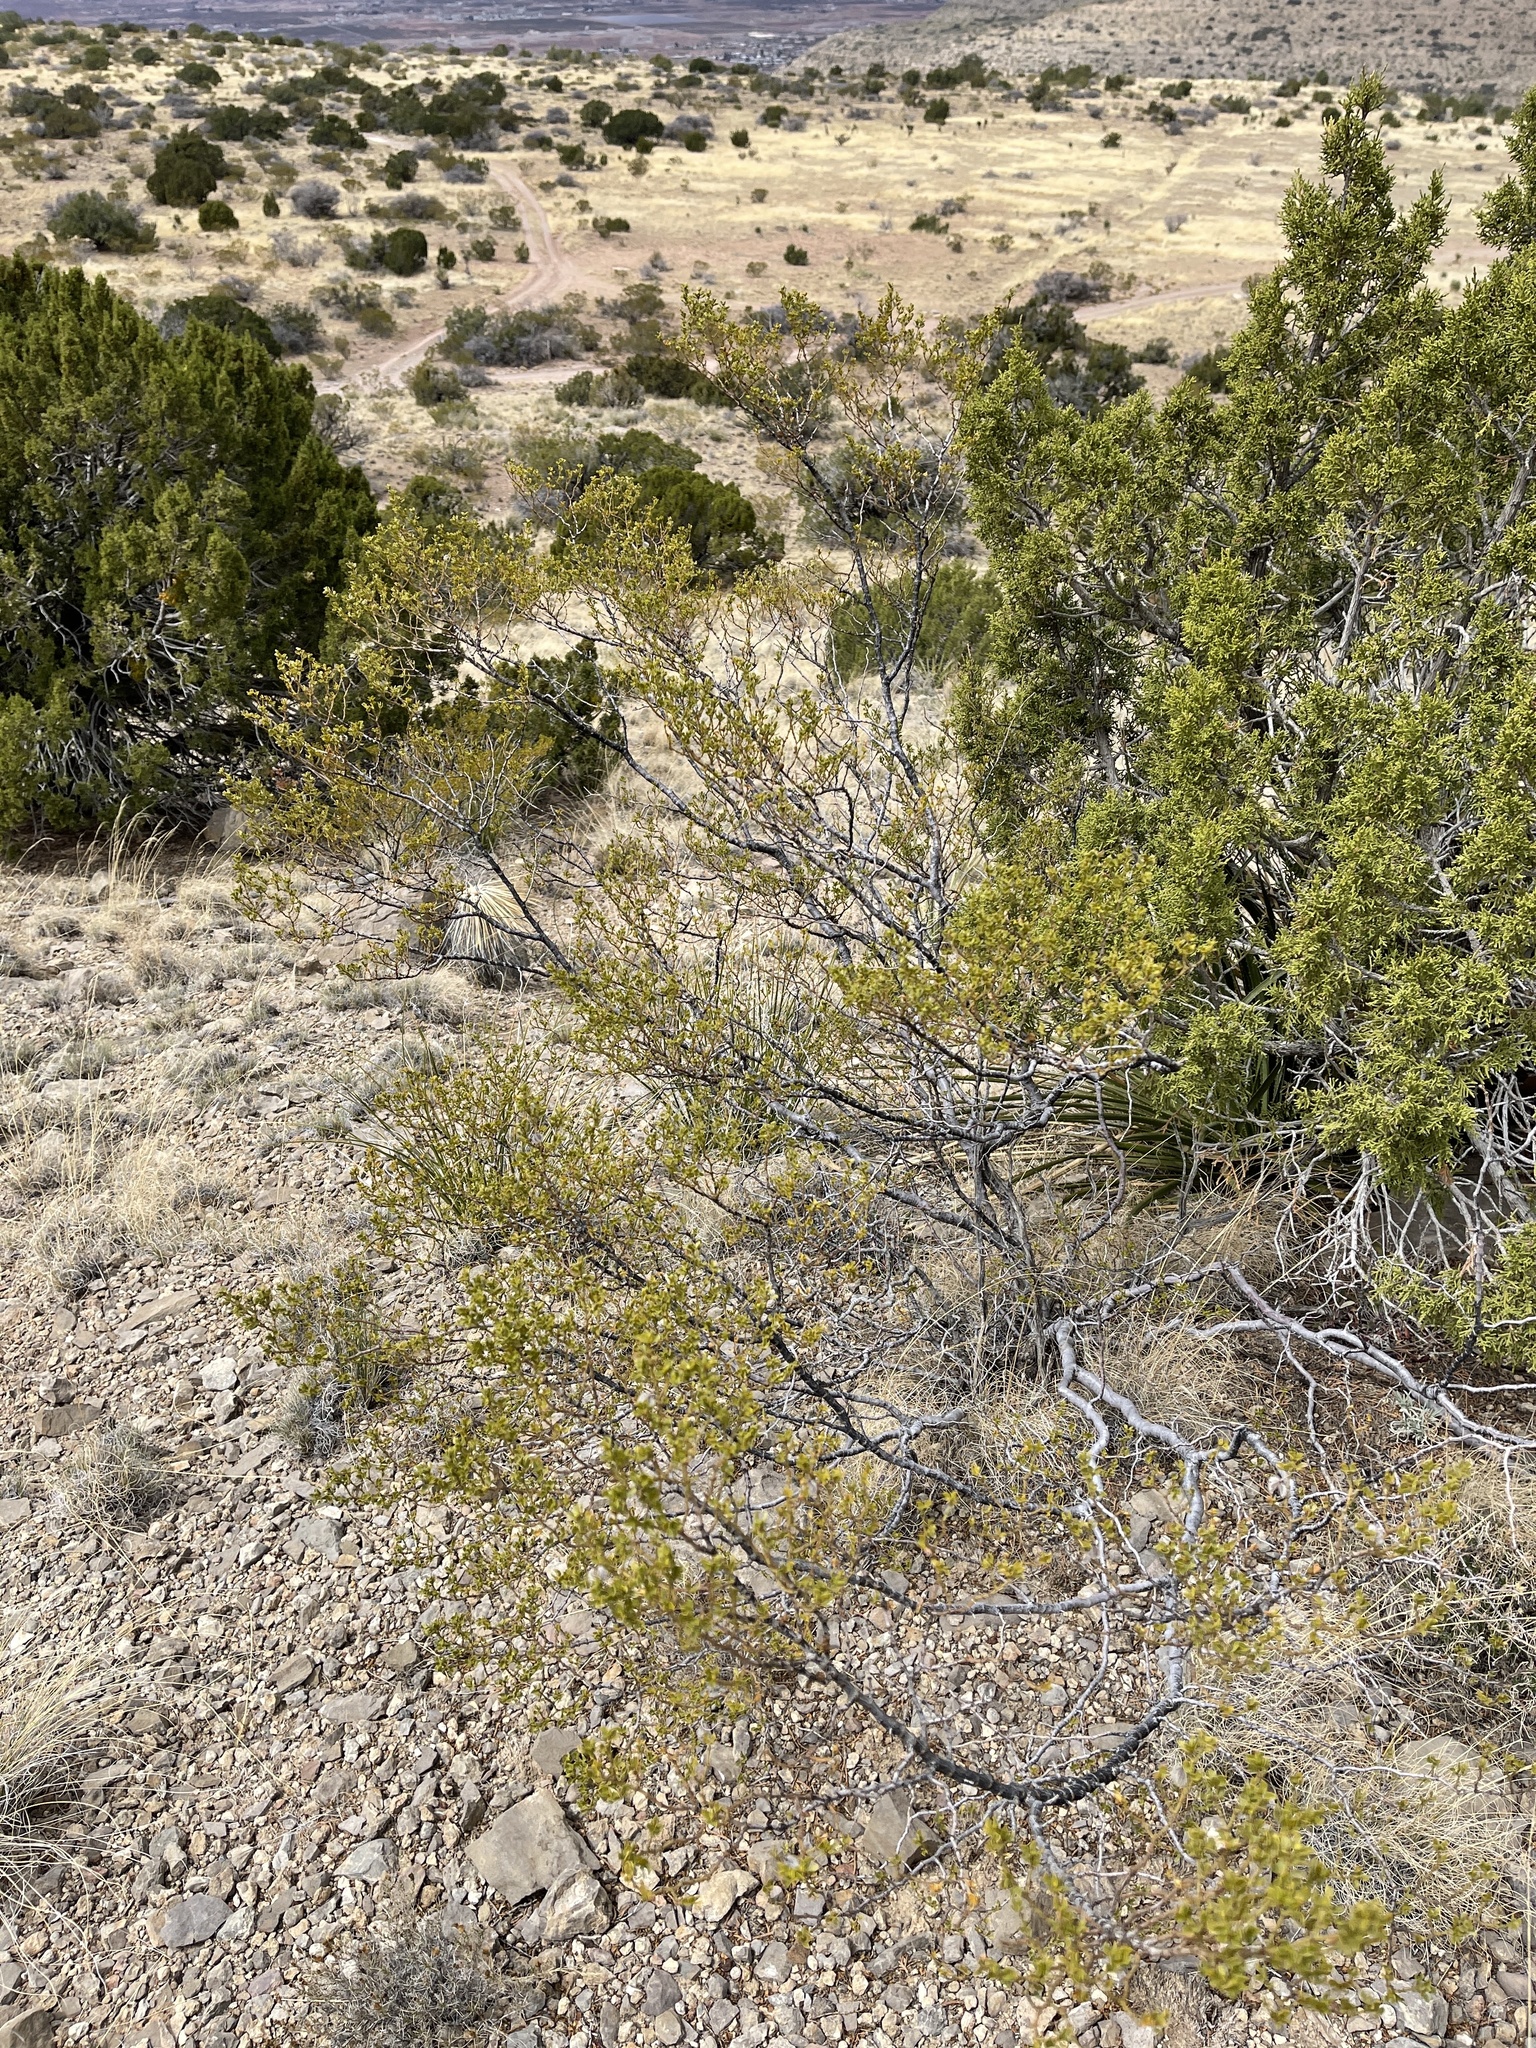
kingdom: Plantae
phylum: Tracheophyta
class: Magnoliopsida
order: Zygophyllales
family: Zygophyllaceae
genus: Larrea
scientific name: Larrea tridentata
